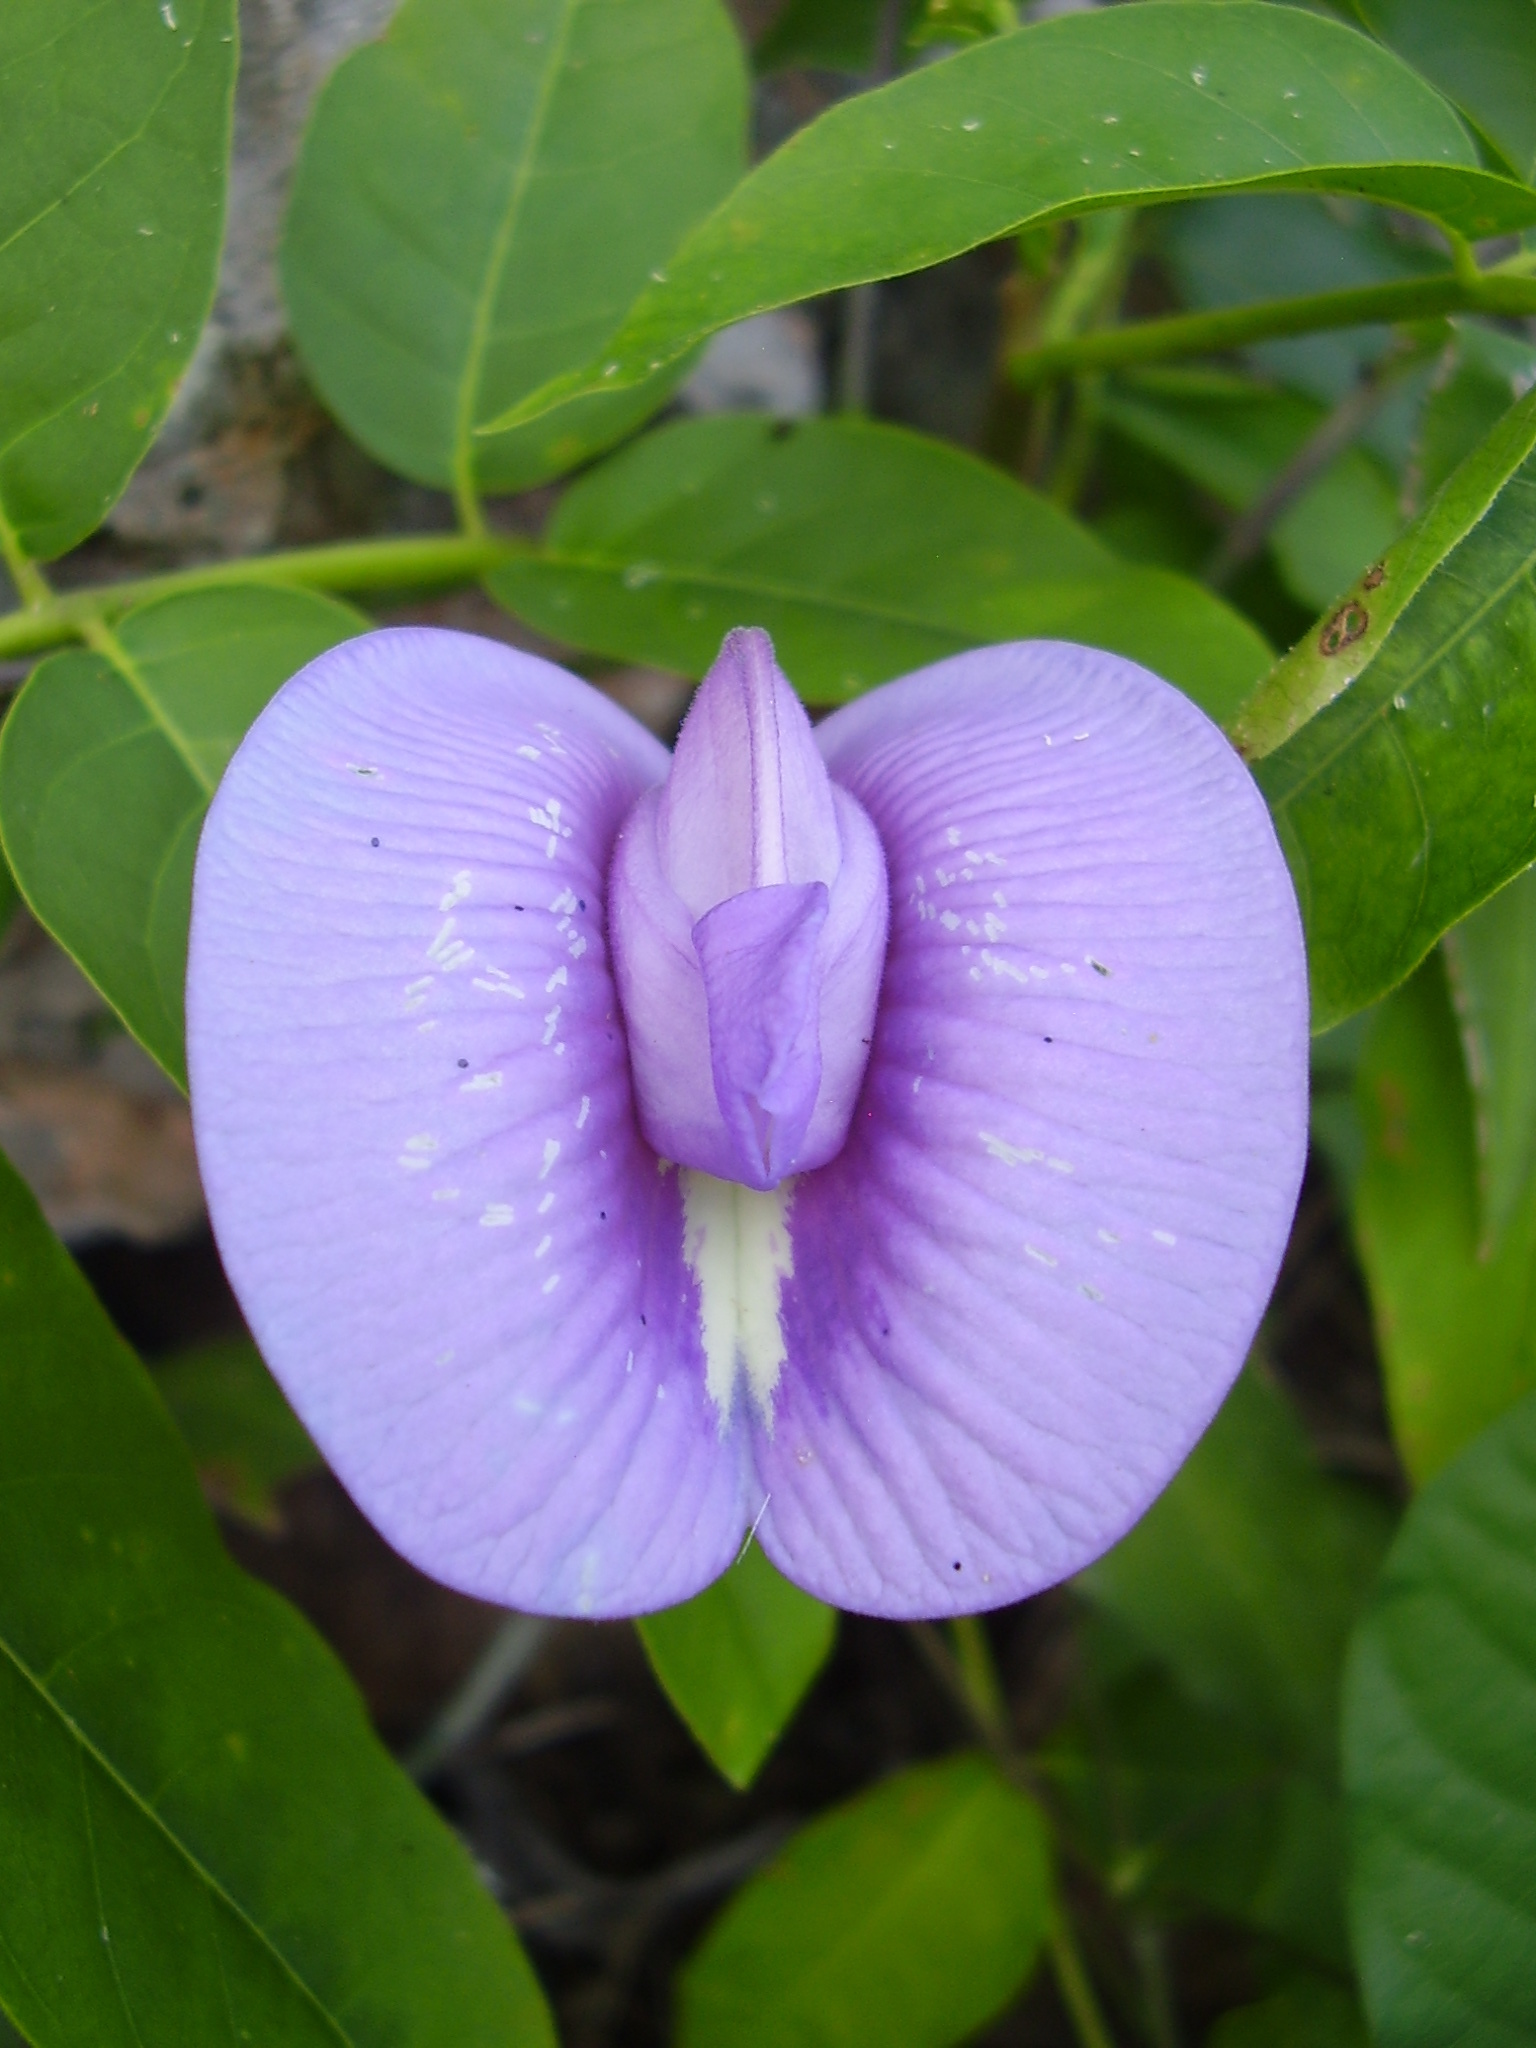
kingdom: Plantae
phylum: Tracheophyta
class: Magnoliopsida
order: Fabales
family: Fabaceae
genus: Centrosema
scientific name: Centrosema virginianum
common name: Butterfly-pea
